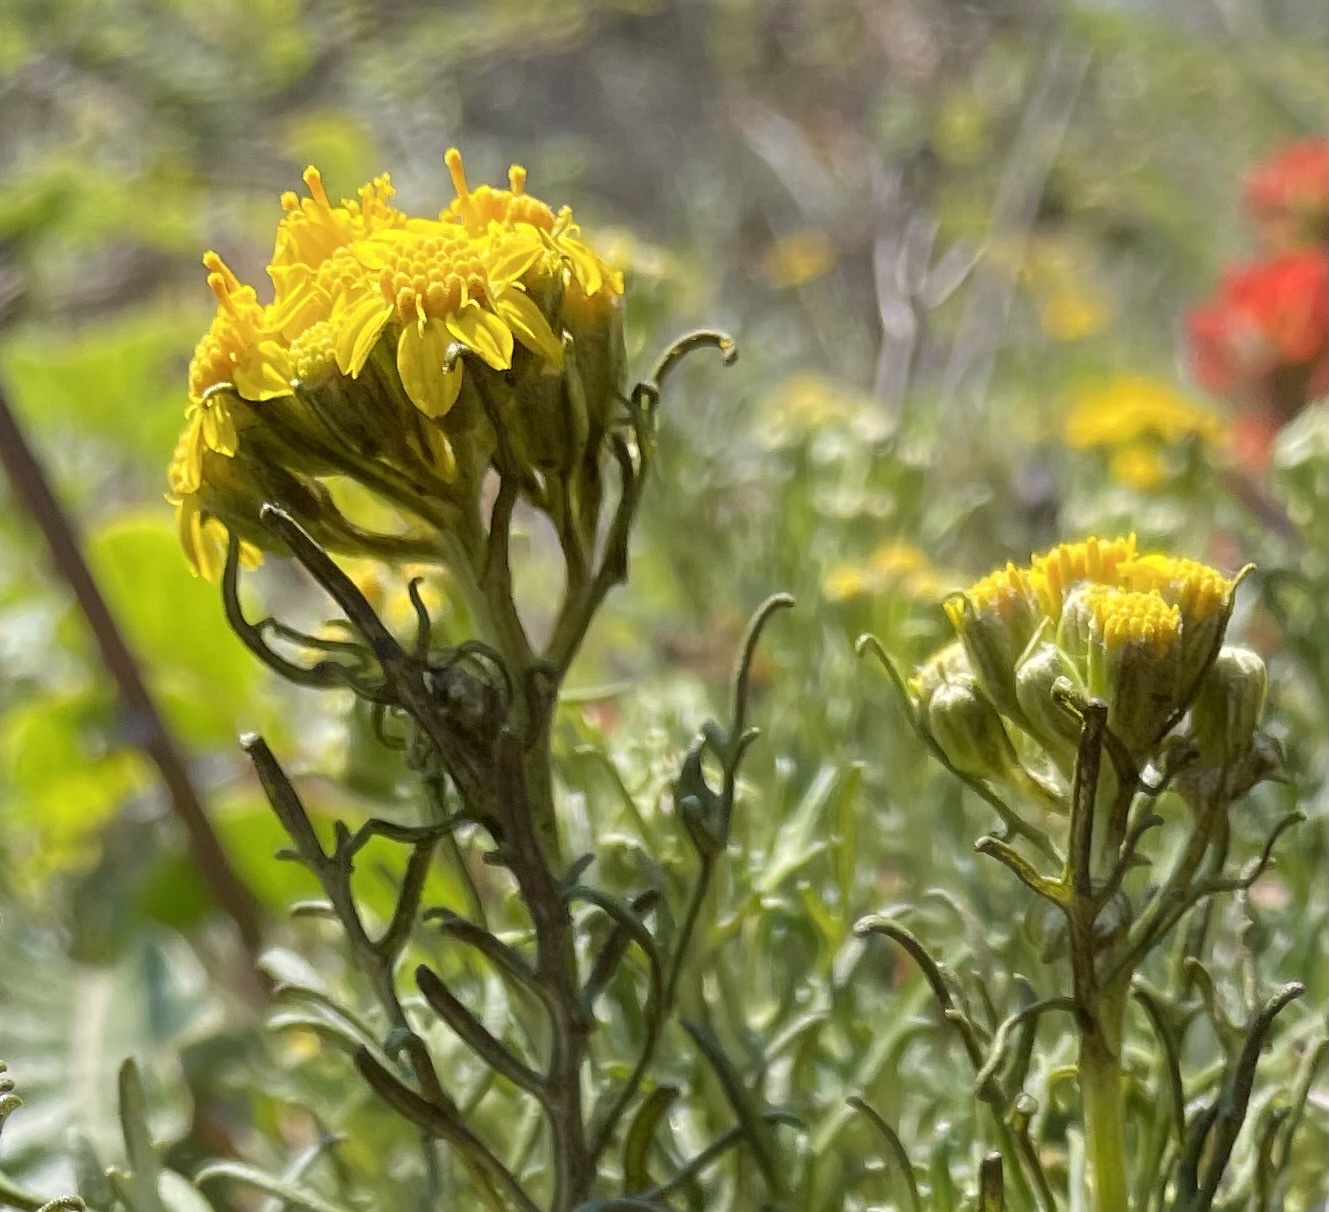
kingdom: Plantae
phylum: Tracheophyta
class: Magnoliopsida
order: Asterales
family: Asteraceae
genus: Eriophyllum
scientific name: Eriophyllum staechadifolium
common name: Lizardtail
